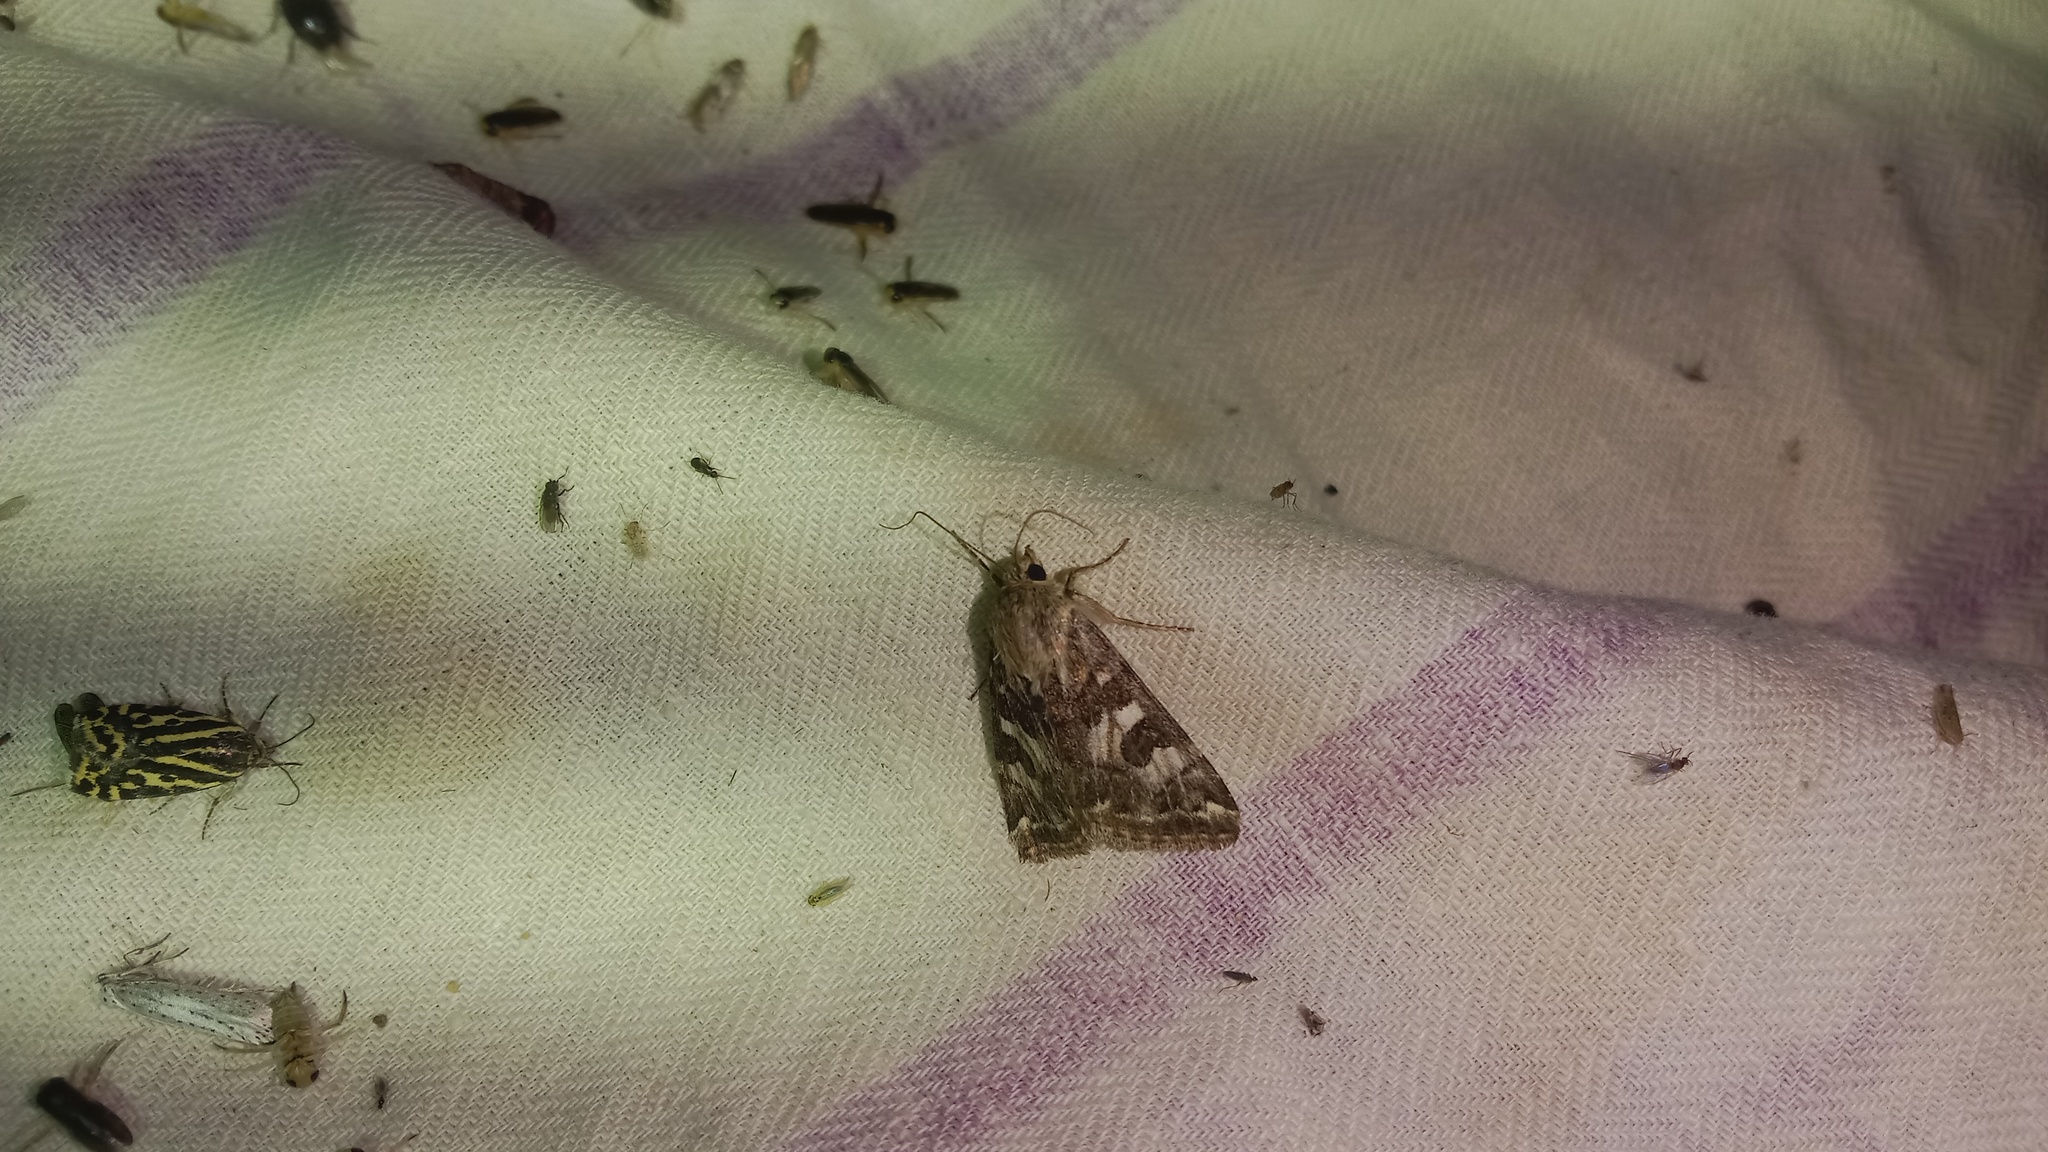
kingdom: Animalia
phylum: Arthropoda
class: Insecta
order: Lepidoptera
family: Noctuidae
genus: Protoschinia
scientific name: Protoschinia scutosa
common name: Spotted clover
